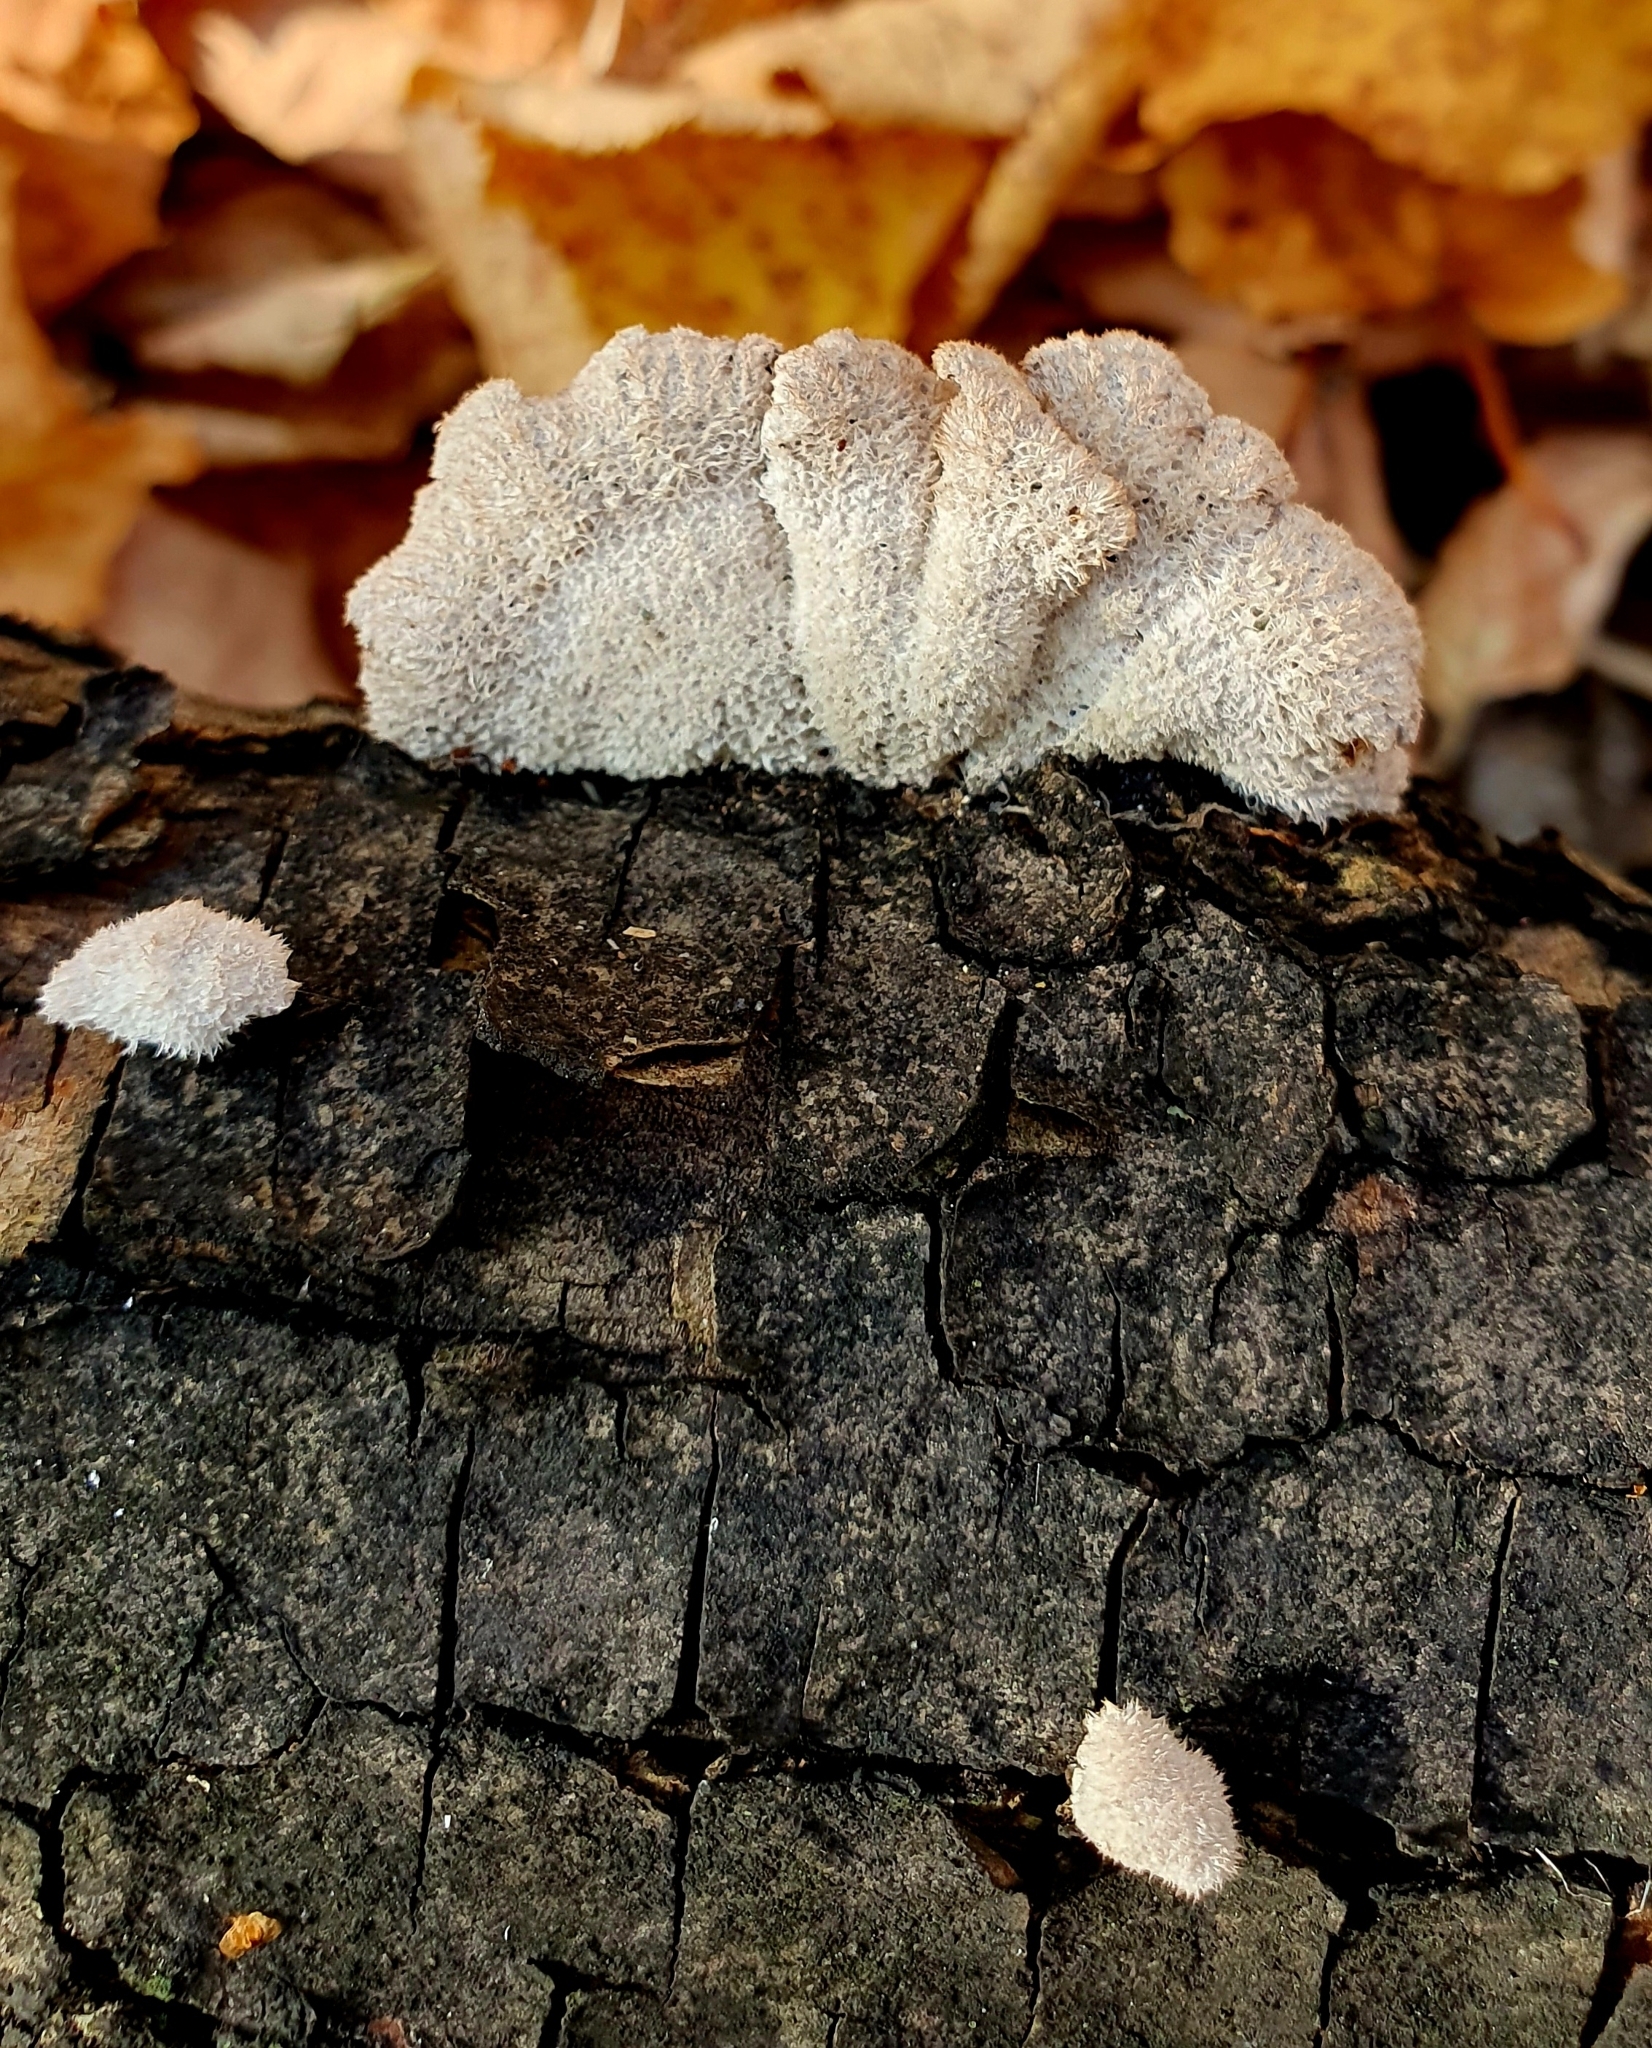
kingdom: Fungi
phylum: Basidiomycota
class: Agaricomycetes
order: Agaricales
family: Schizophyllaceae
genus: Schizophyllum
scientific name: Schizophyllum commune
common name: Common porecrust
